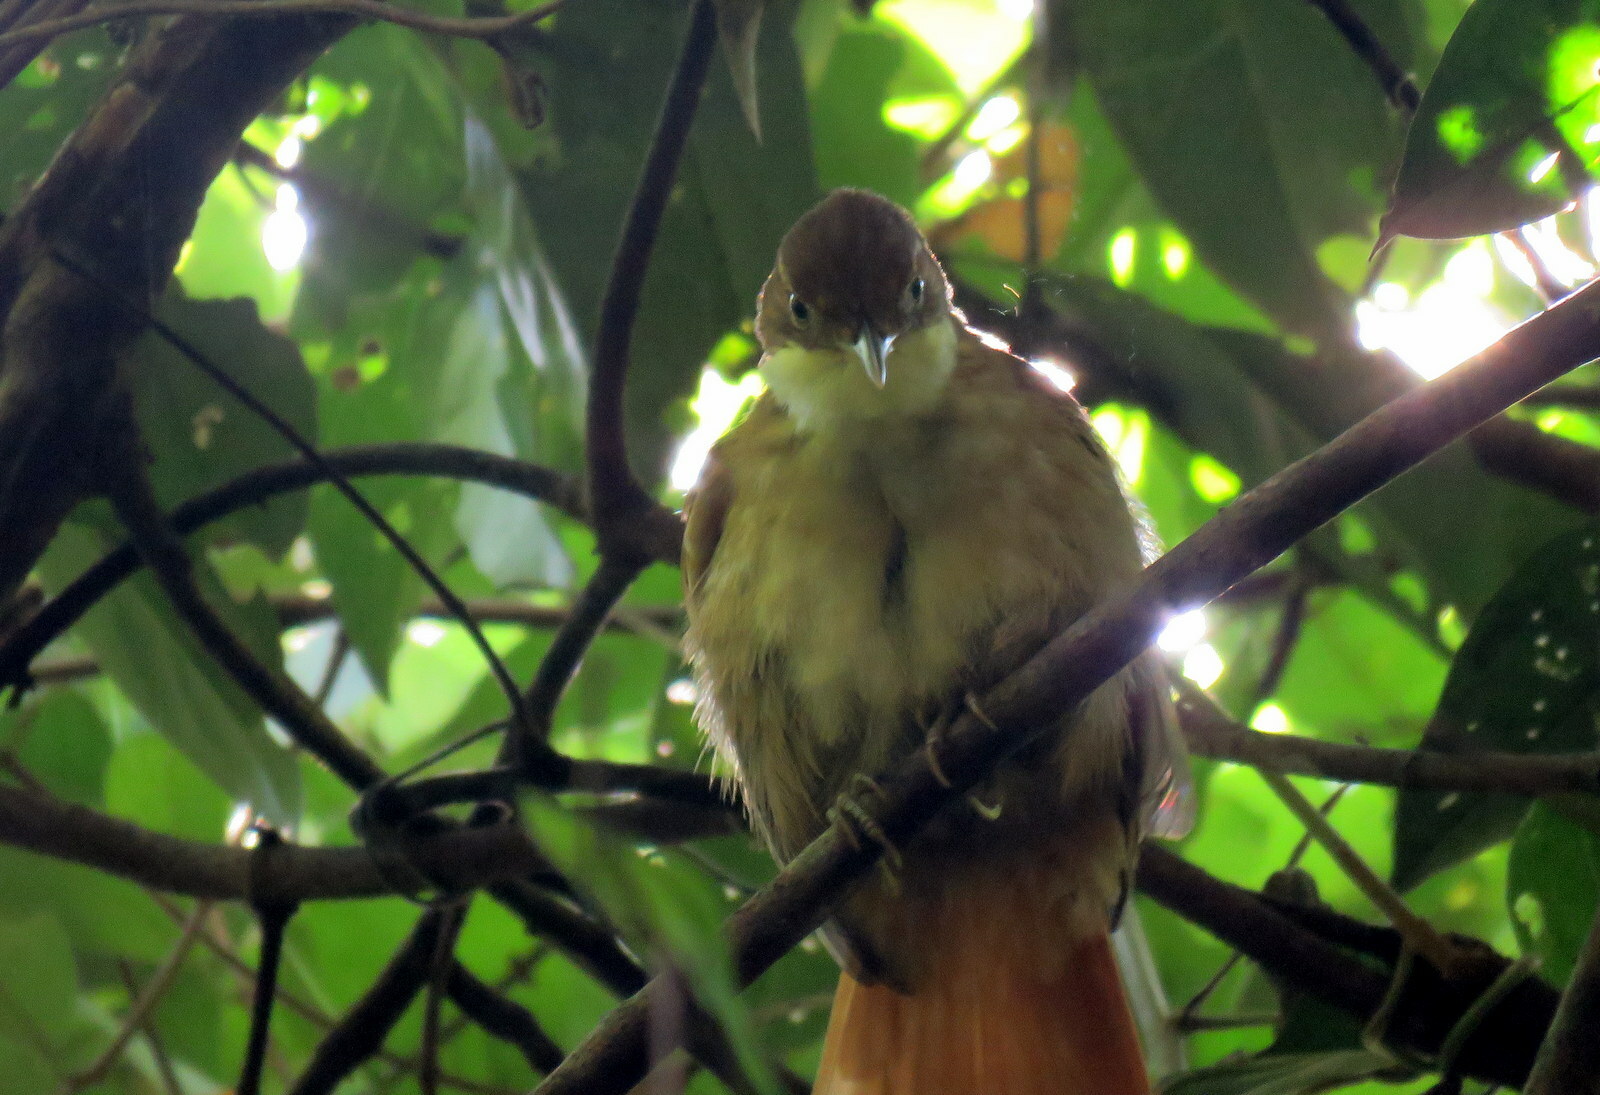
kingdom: Animalia
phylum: Chordata
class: Aves
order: Passeriformes
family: Furnariidae
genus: Automolus
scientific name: Automolus leucophthalmus
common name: White-eyed foliage-gleaner
